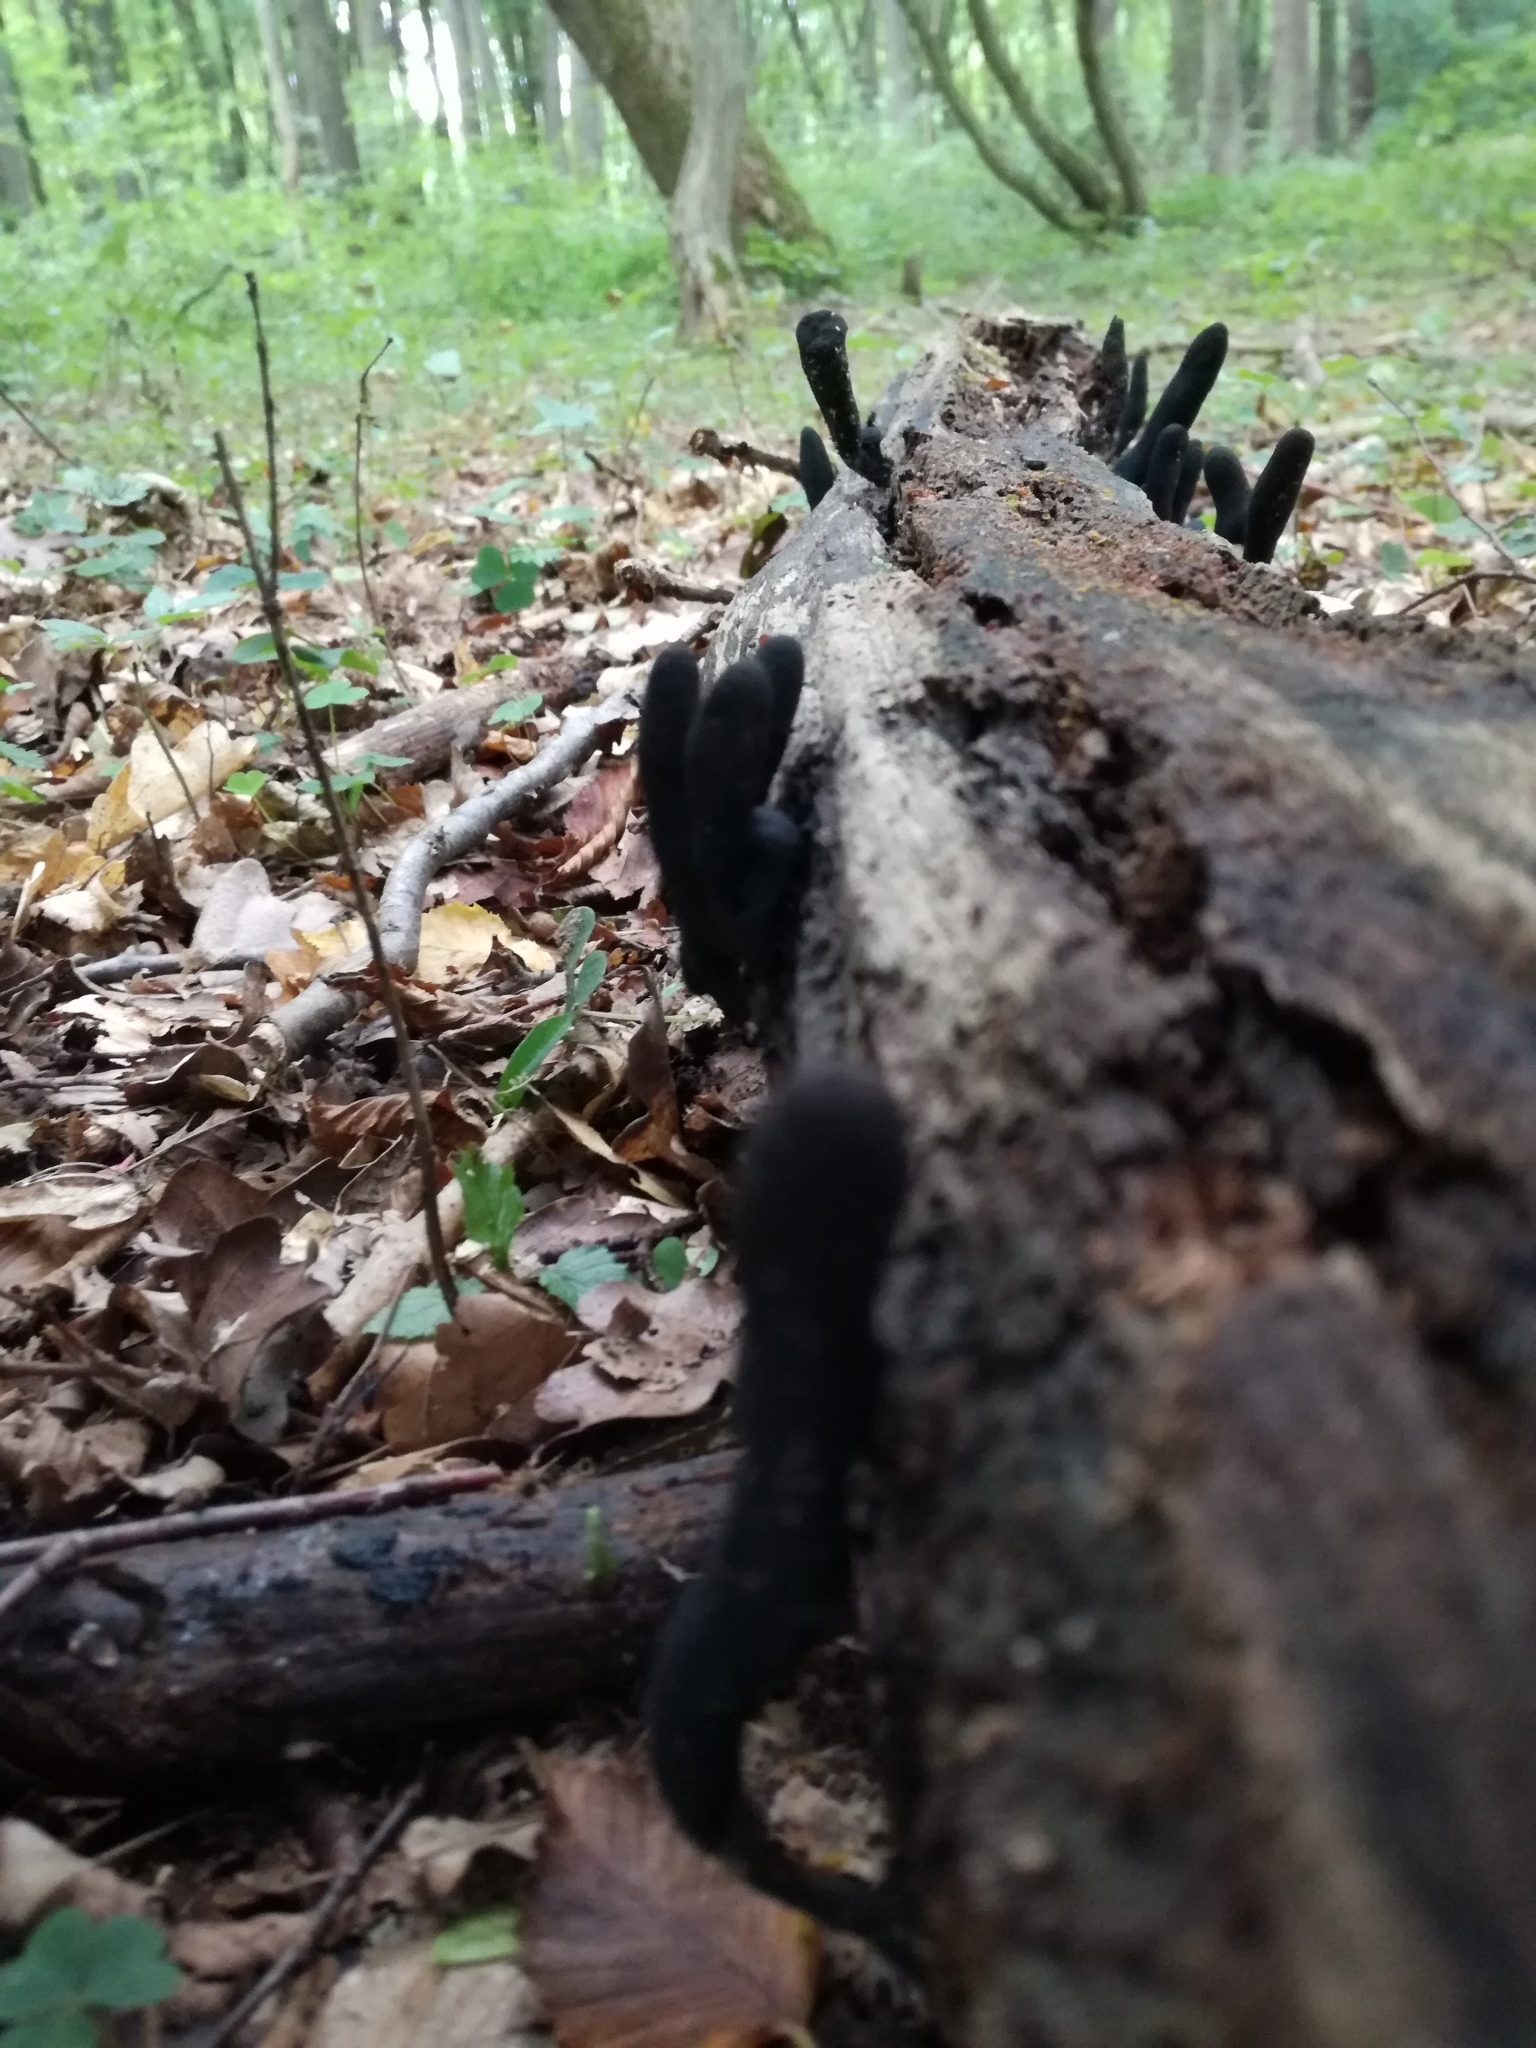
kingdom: Fungi
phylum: Ascomycota
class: Sordariomycetes
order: Xylariales
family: Xylariaceae
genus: Xylaria
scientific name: Xylaria longipes
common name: Dead moll's fingers
